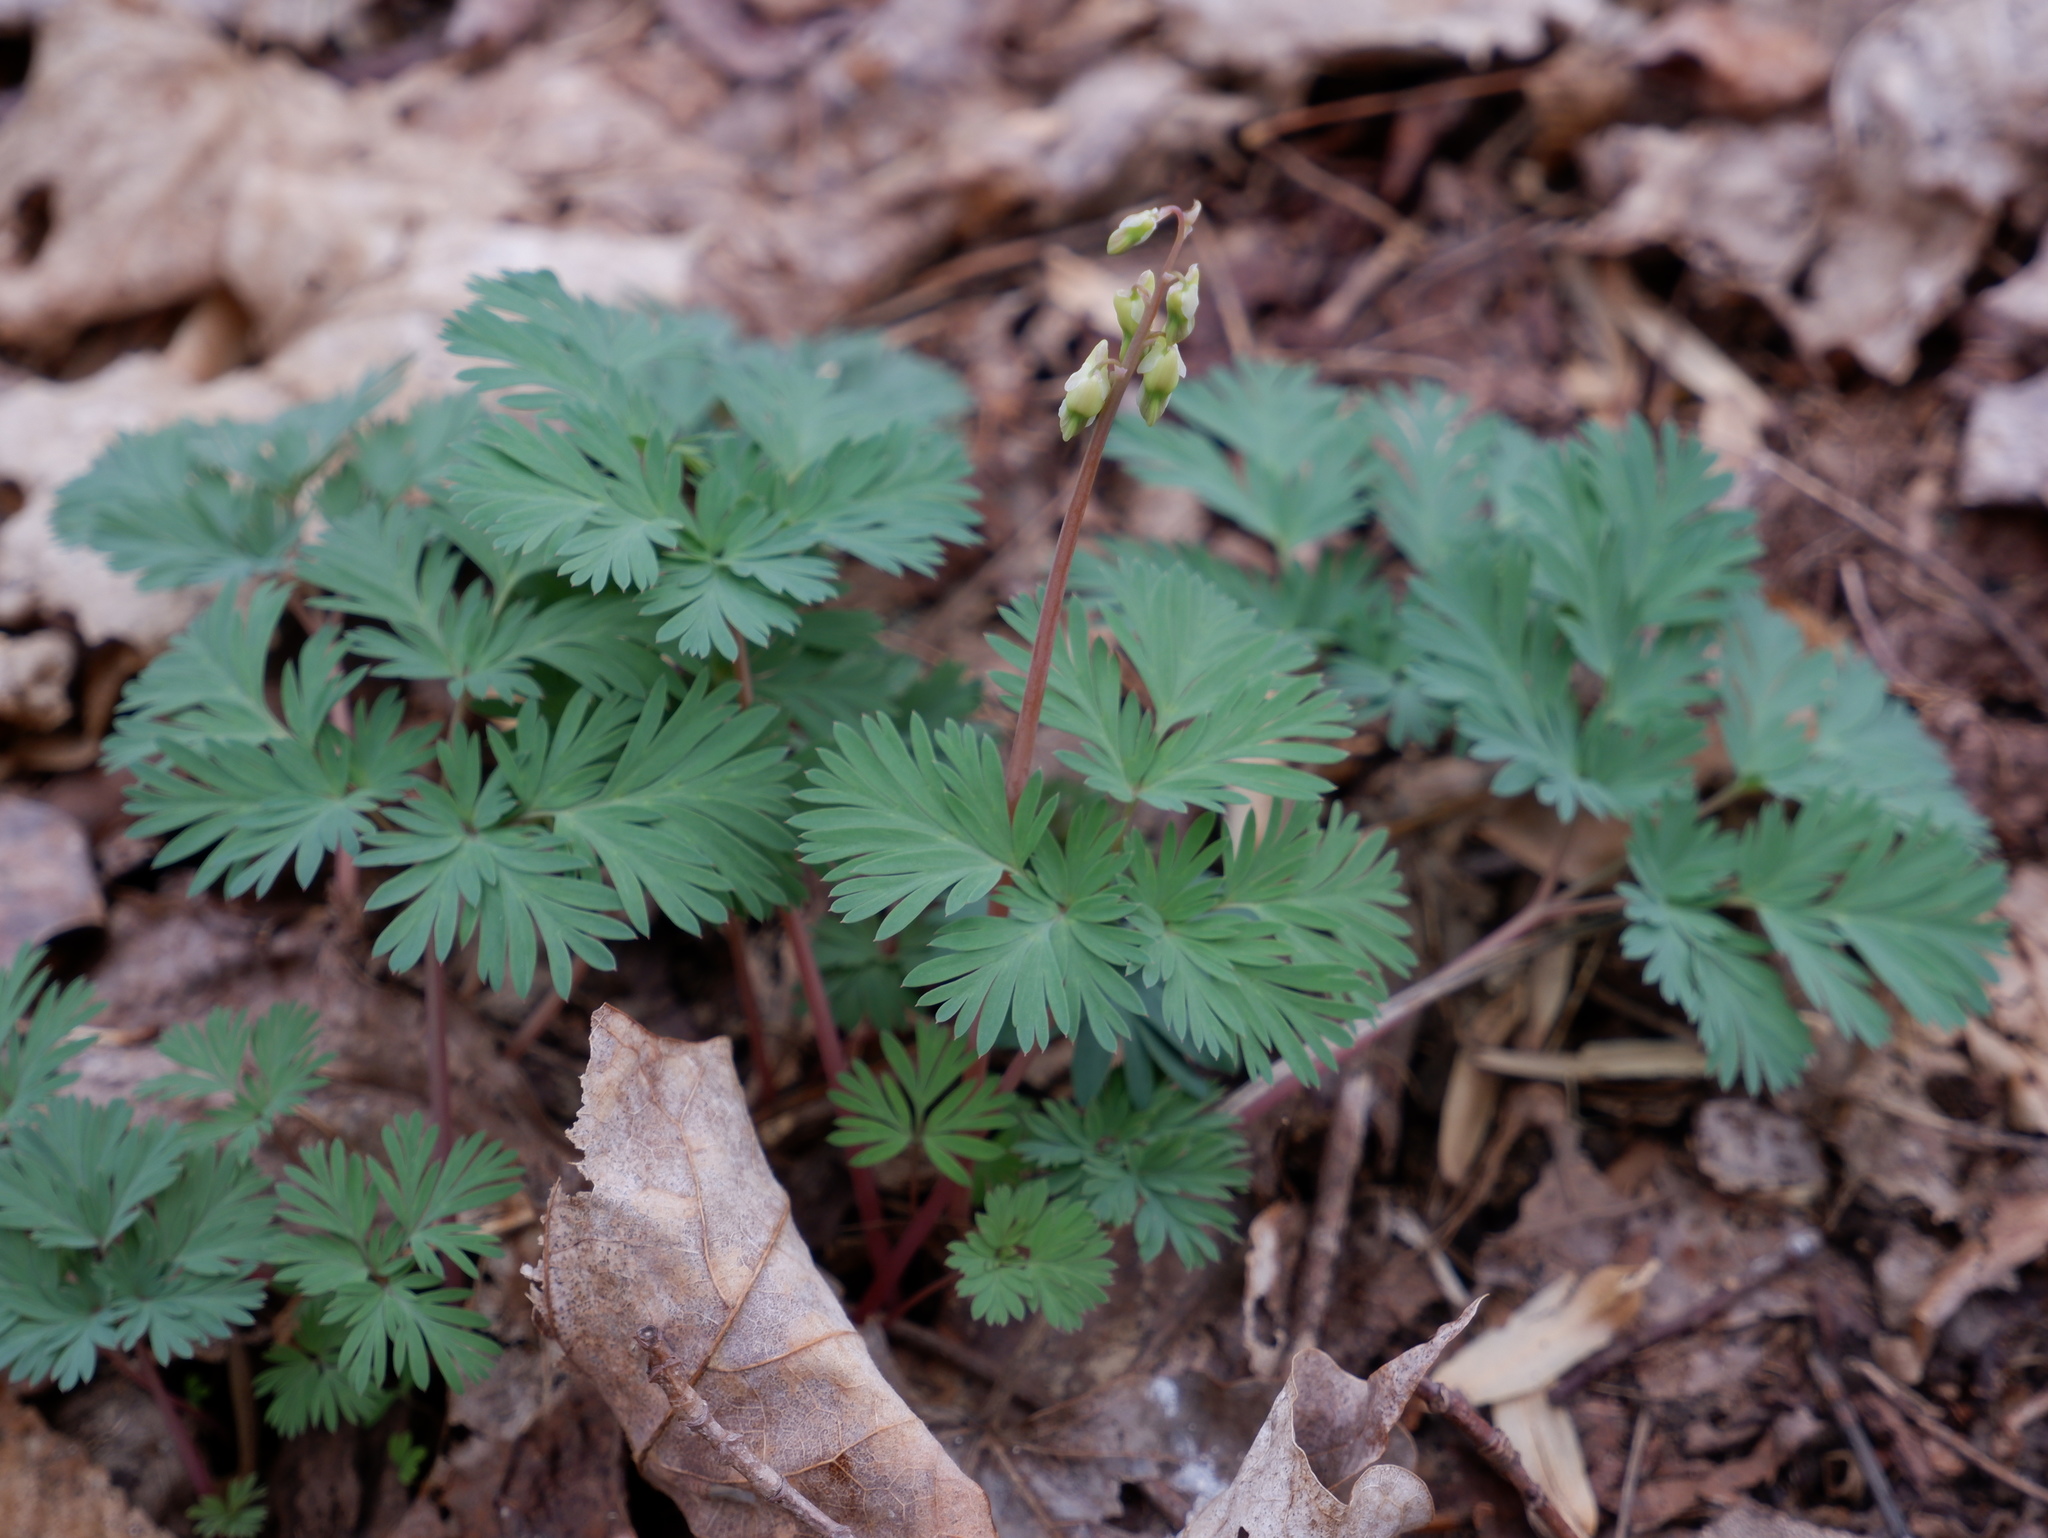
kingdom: Plantae
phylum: Tracheophyta
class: Magnoliopsida
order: Ranunculales
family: Papaveraceae
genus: Dicentra
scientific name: Dicentra cucullaria
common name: Dutchman's breeches
